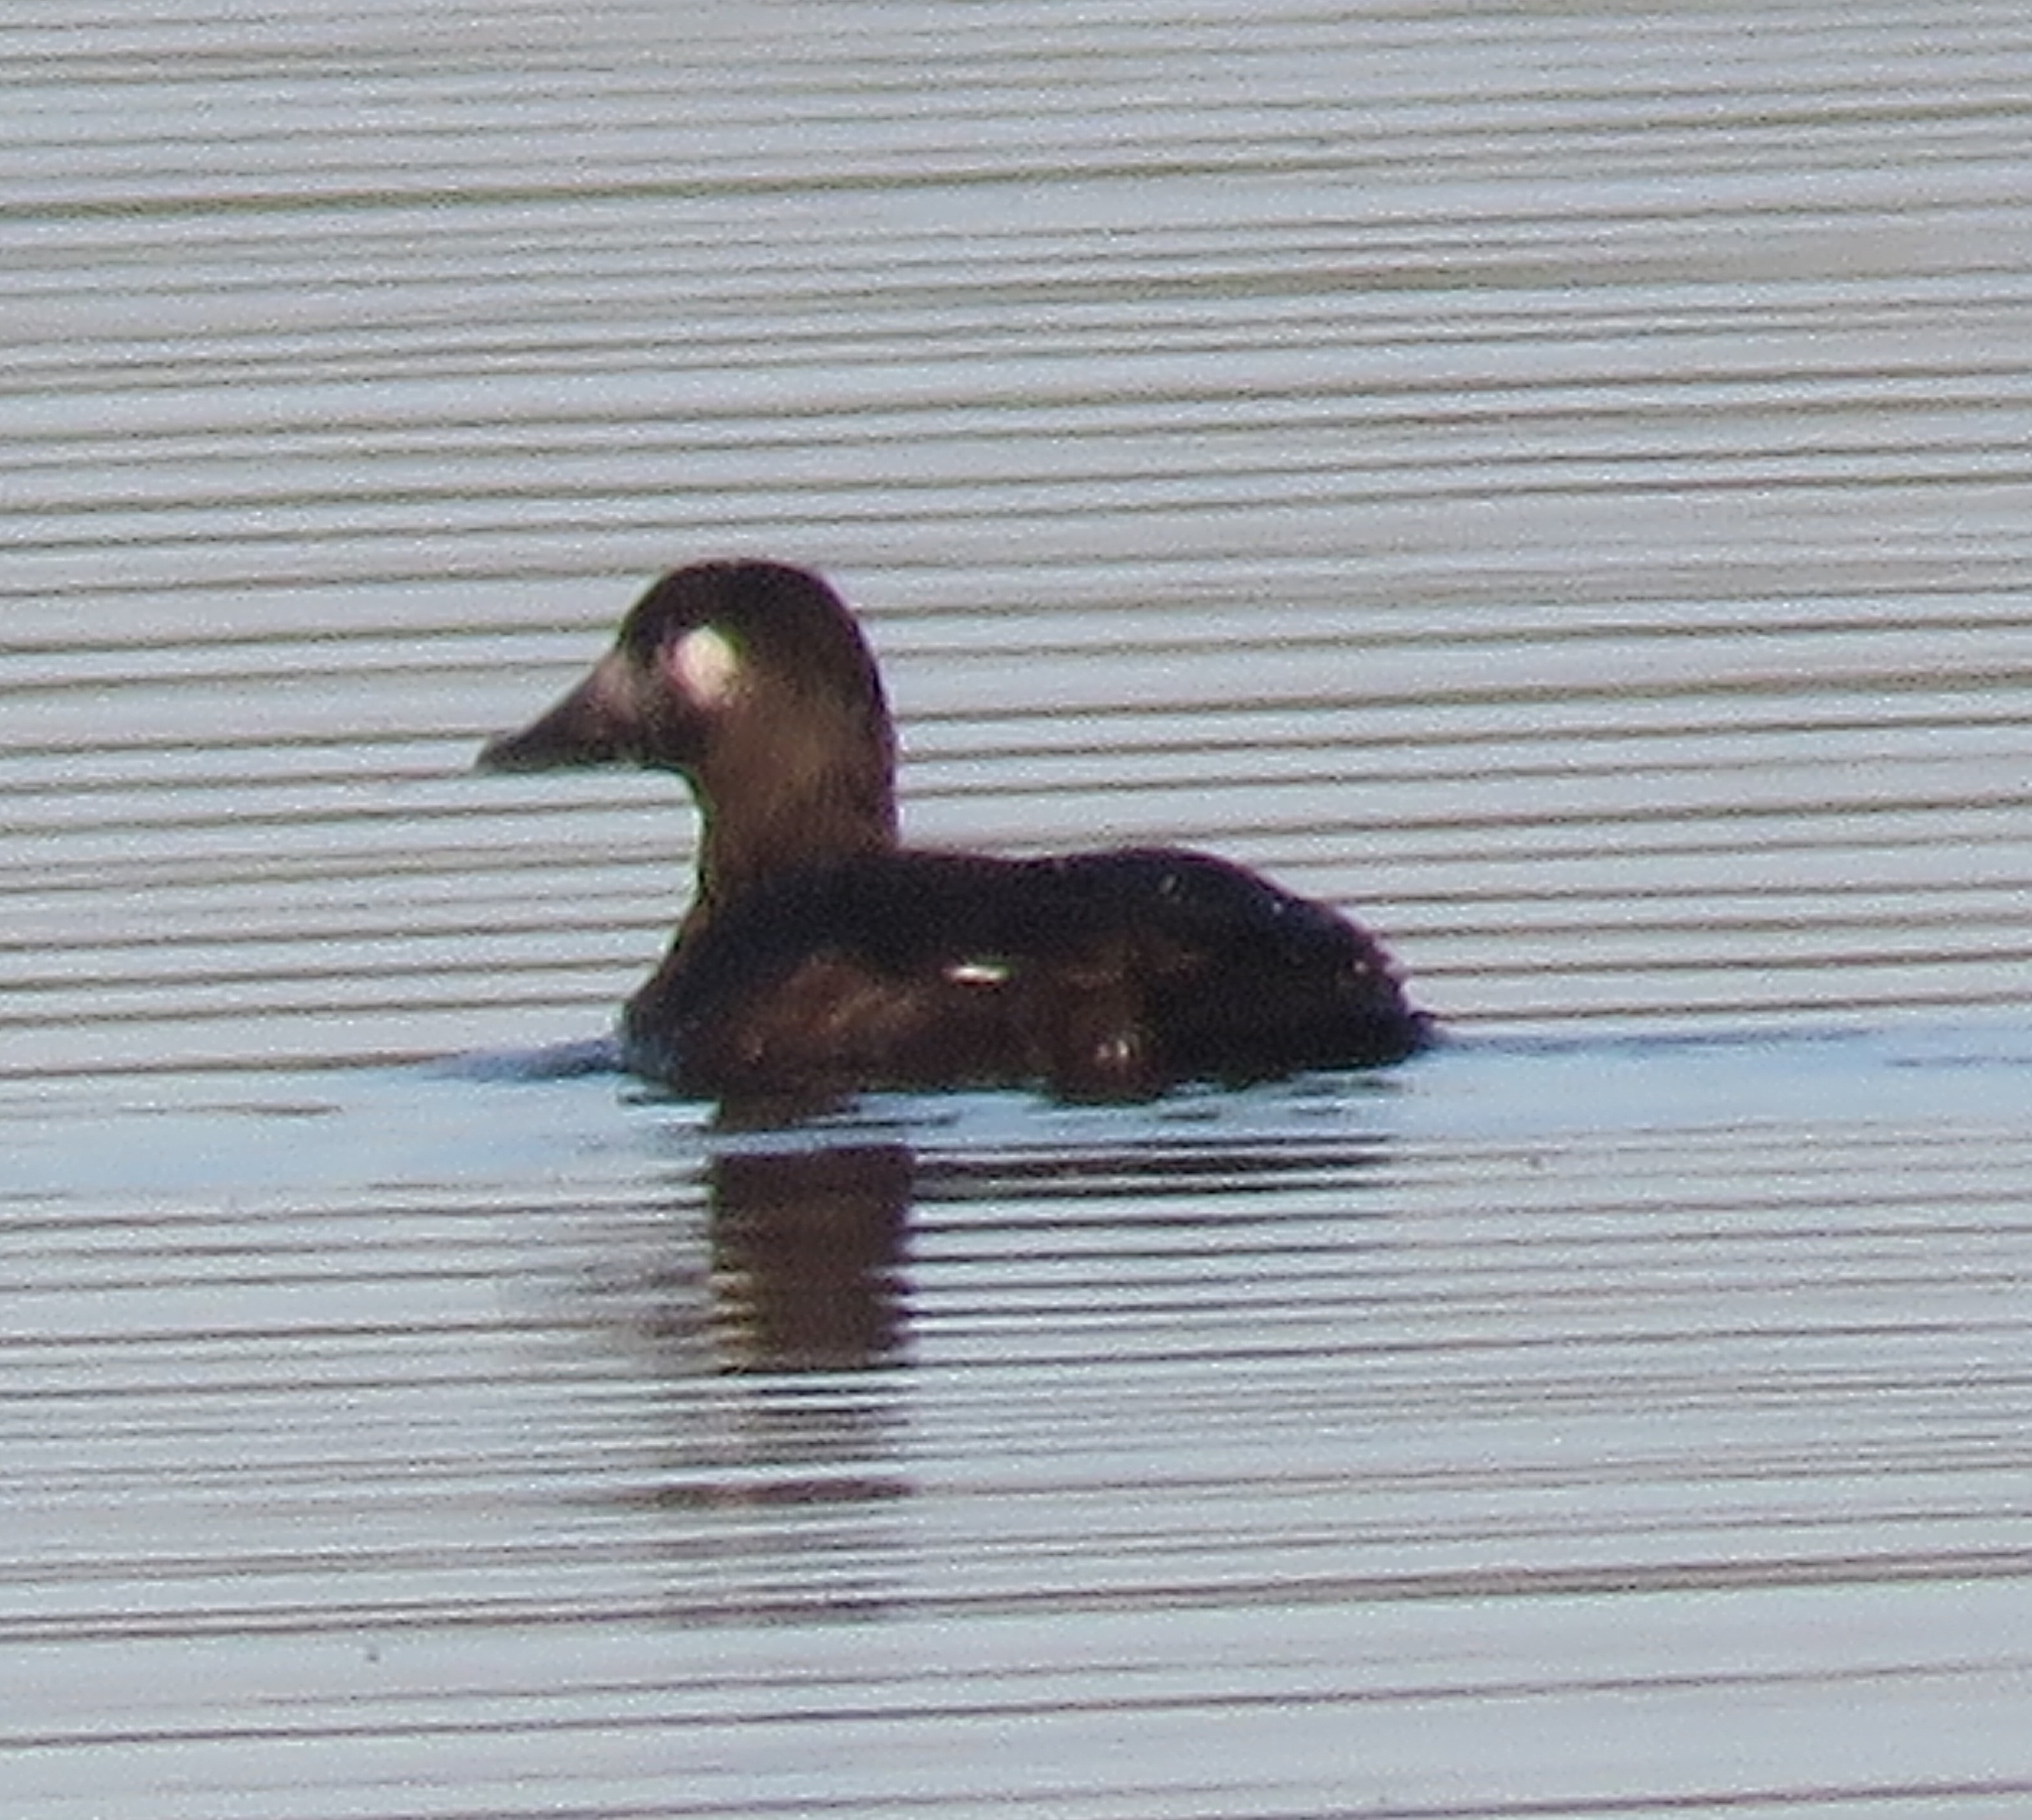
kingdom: Animalia
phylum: Chordata
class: Aves
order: Anseriformes
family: Anatidae
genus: Melanitta
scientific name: Melanitta deglandi
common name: White-winged scoter
